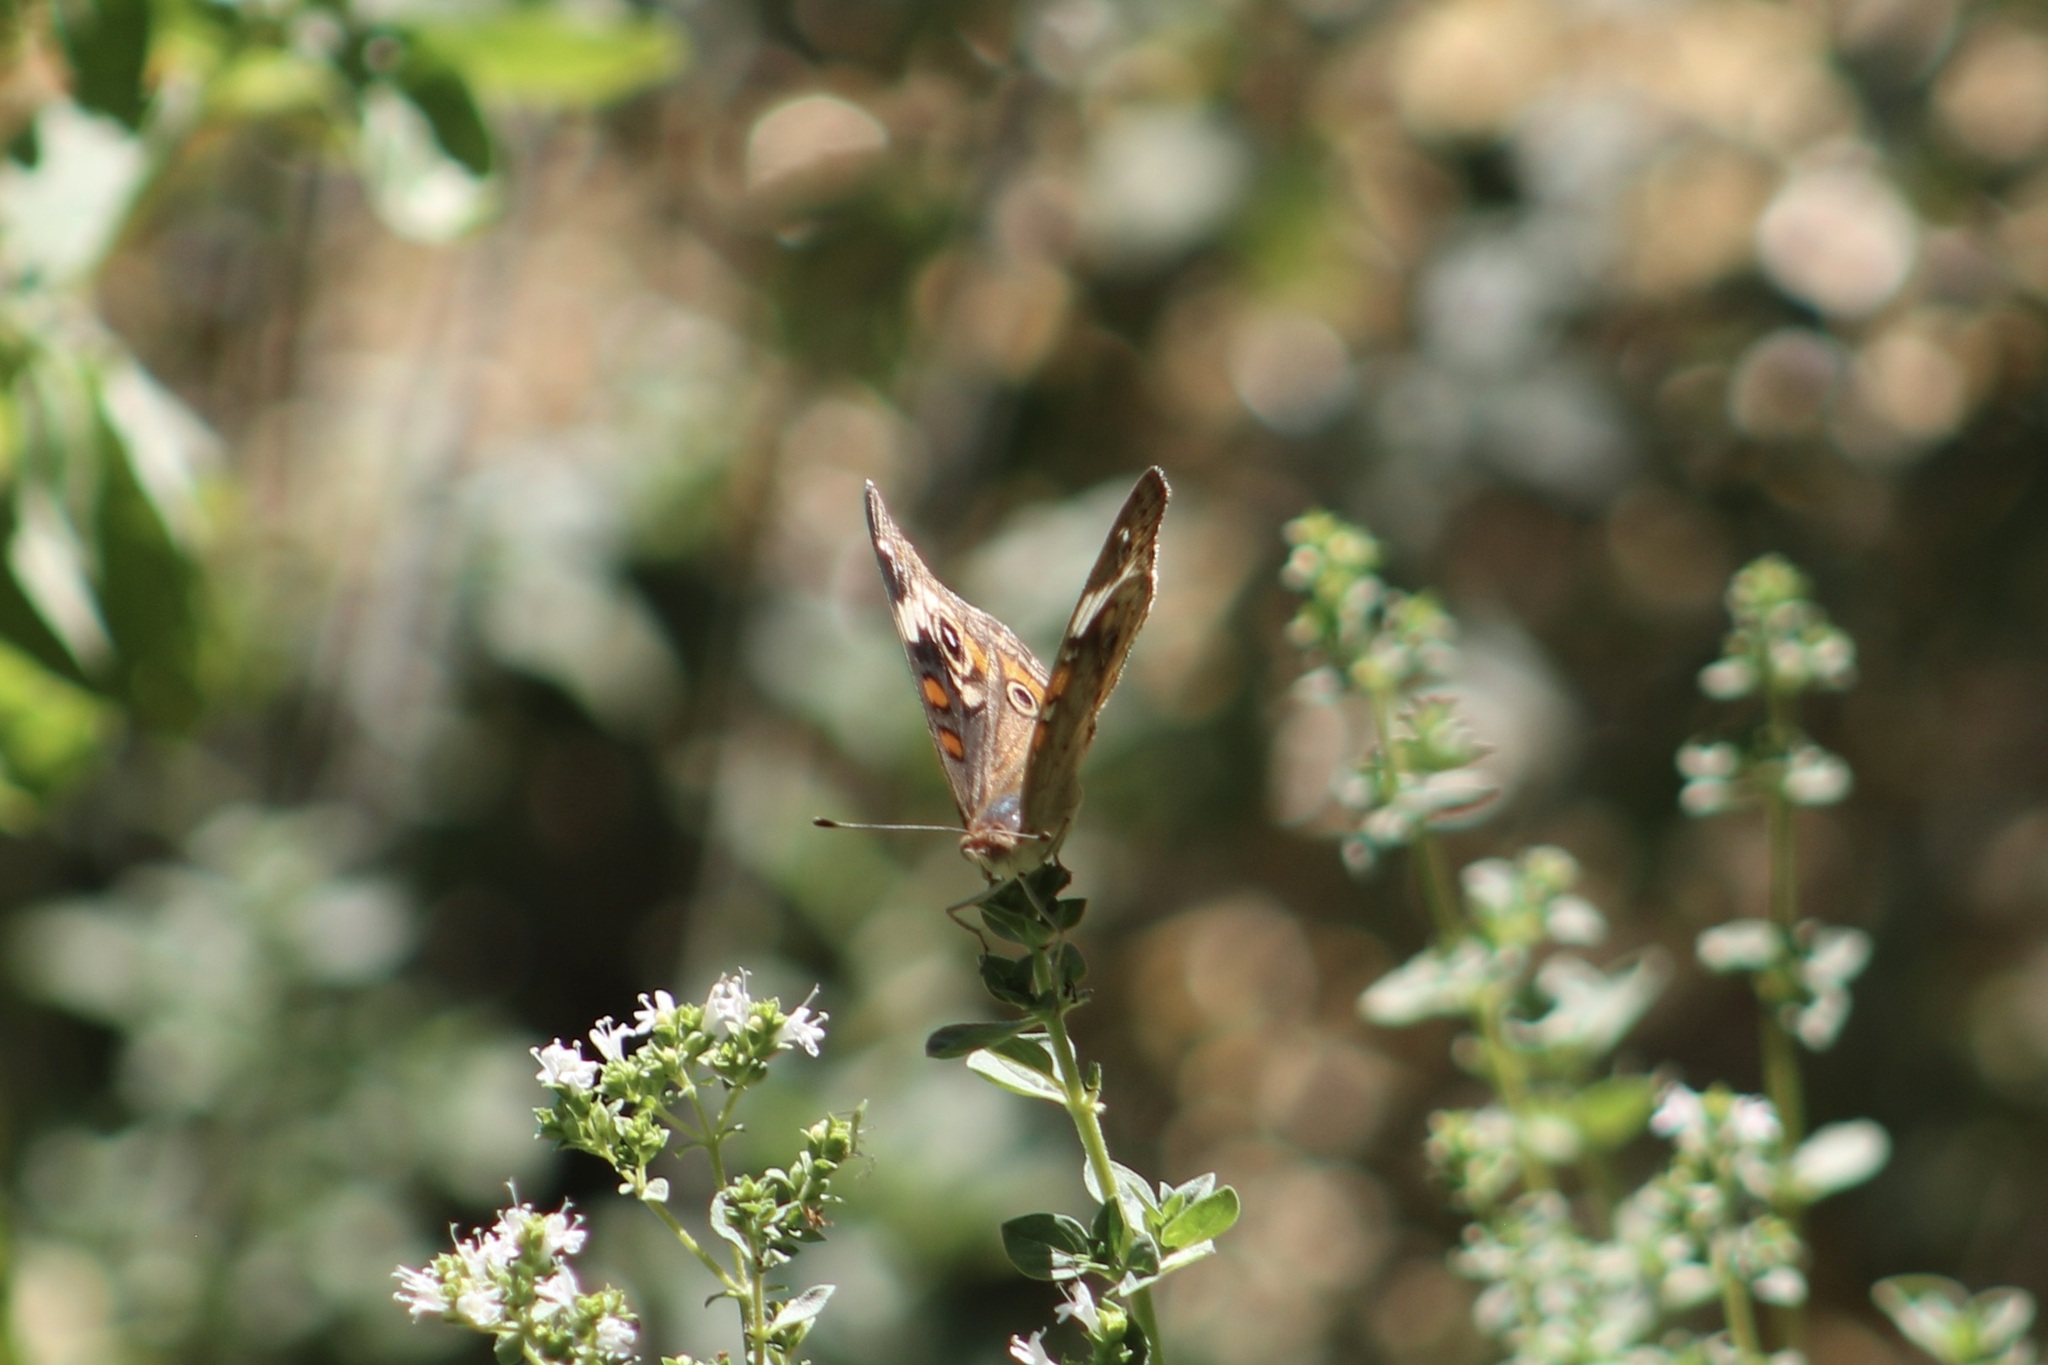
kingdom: Animalia
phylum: Arthropoda
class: Insecta
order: Lepidoptera
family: Nymphalidae
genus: Junonia
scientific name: Junonia coenia
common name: Common buckeye
